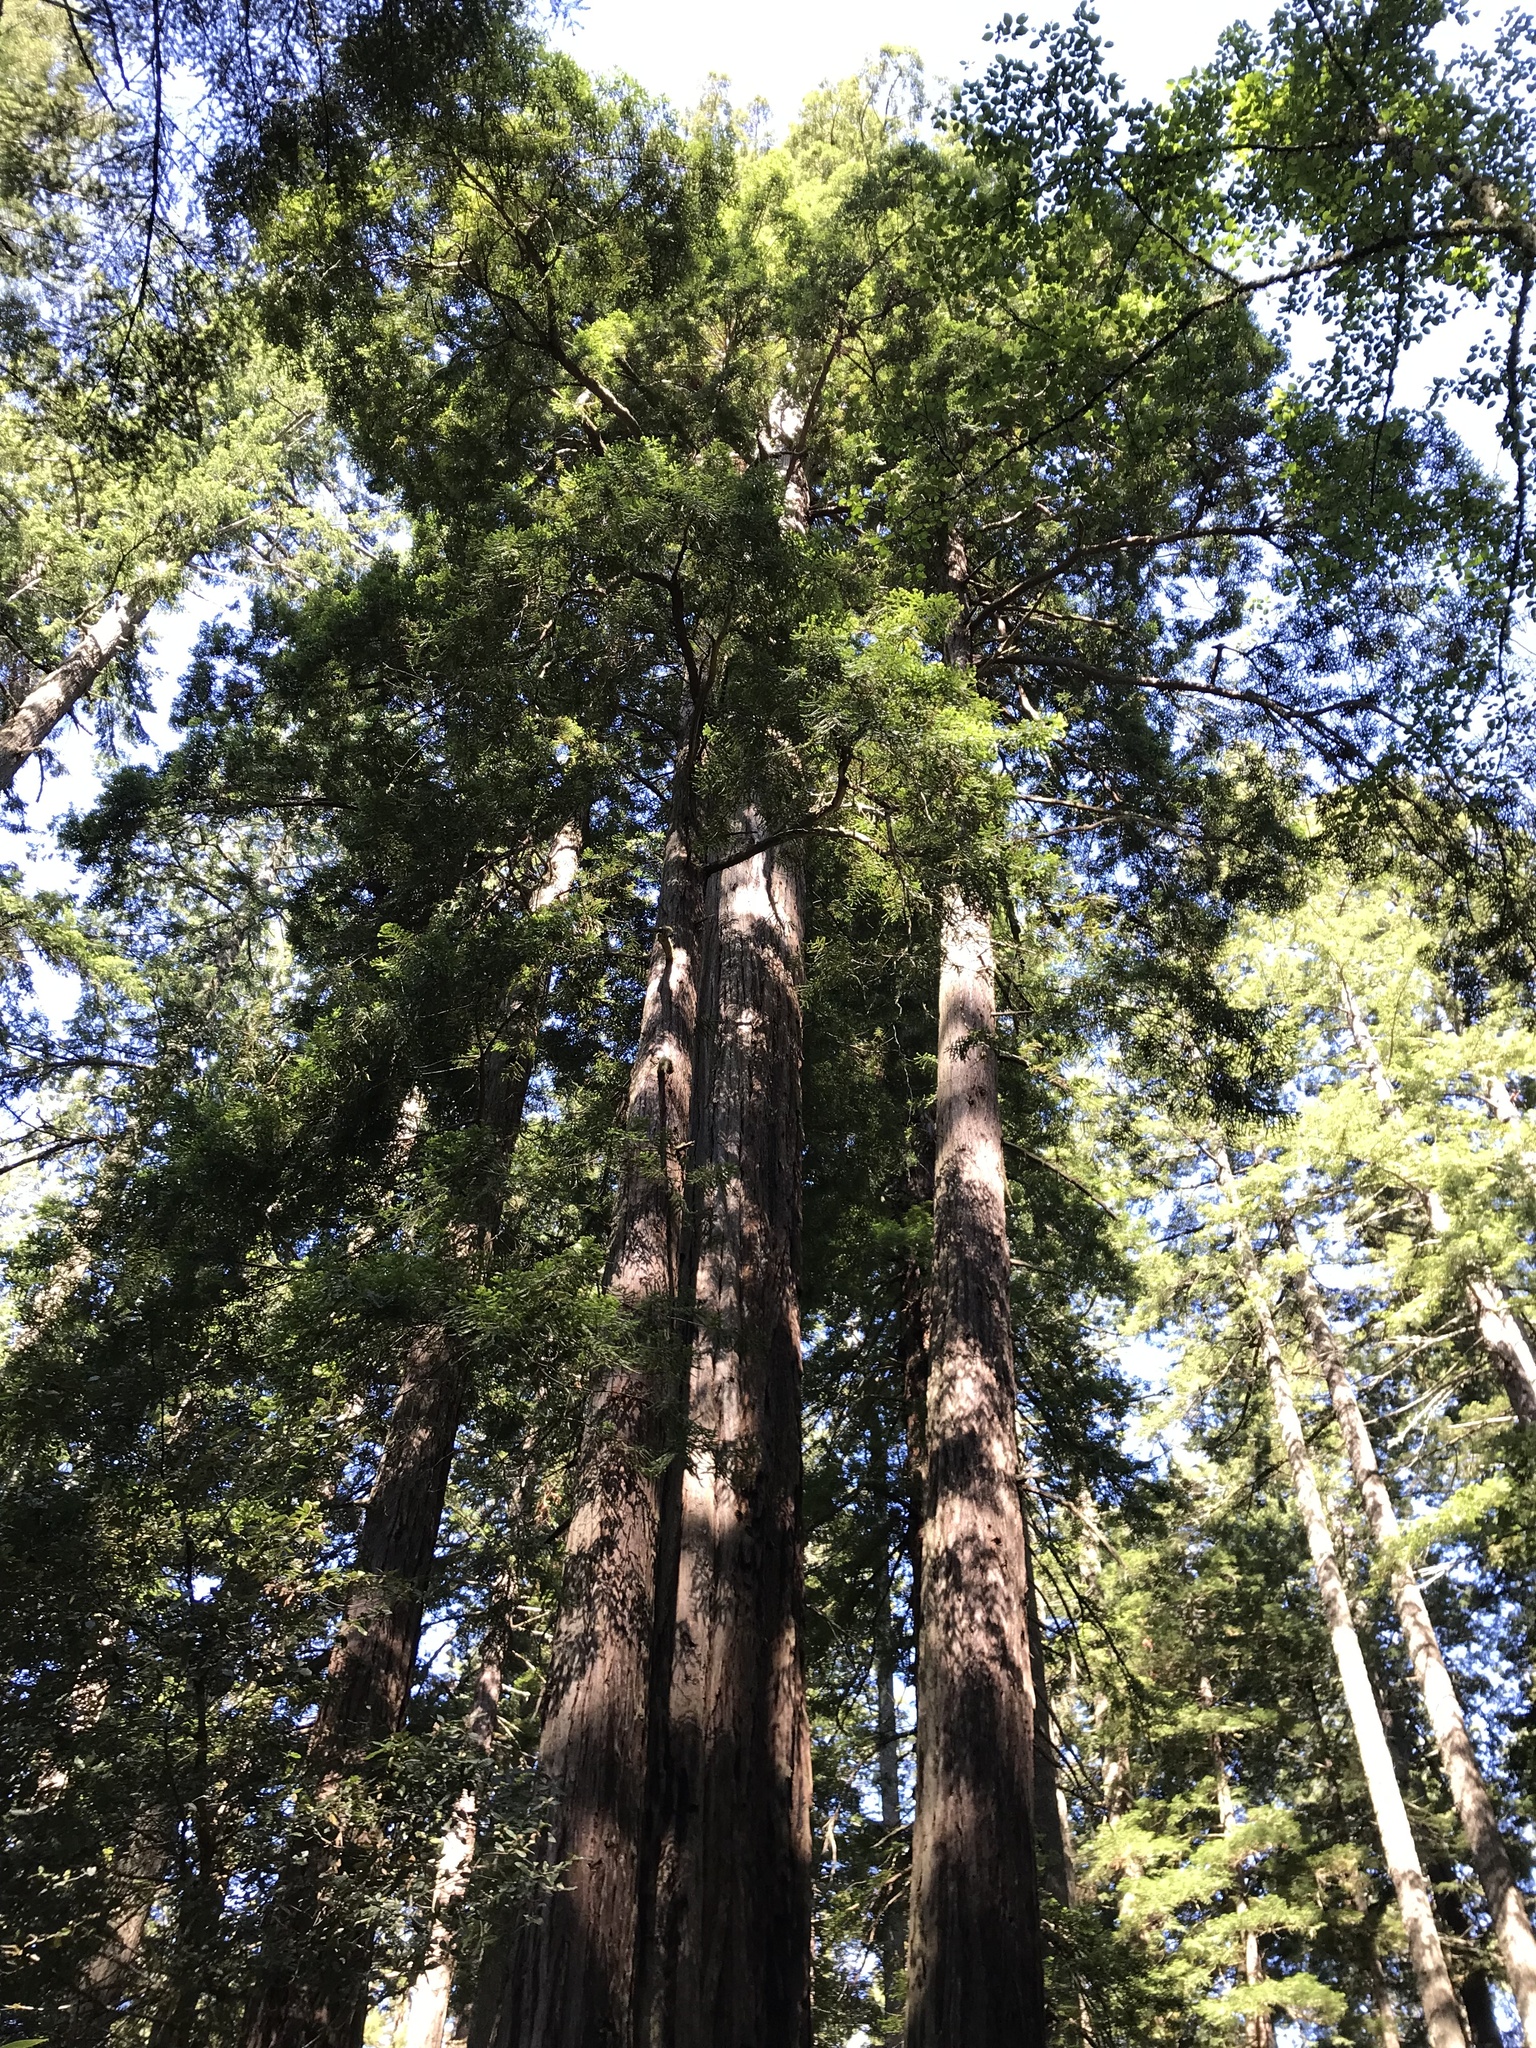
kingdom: Plantae
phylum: Tracheophyta
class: Pinopsida
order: Pinales
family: Cupressaceae
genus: Sequoia
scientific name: Sequoia sempervirens
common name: Coast redwood
